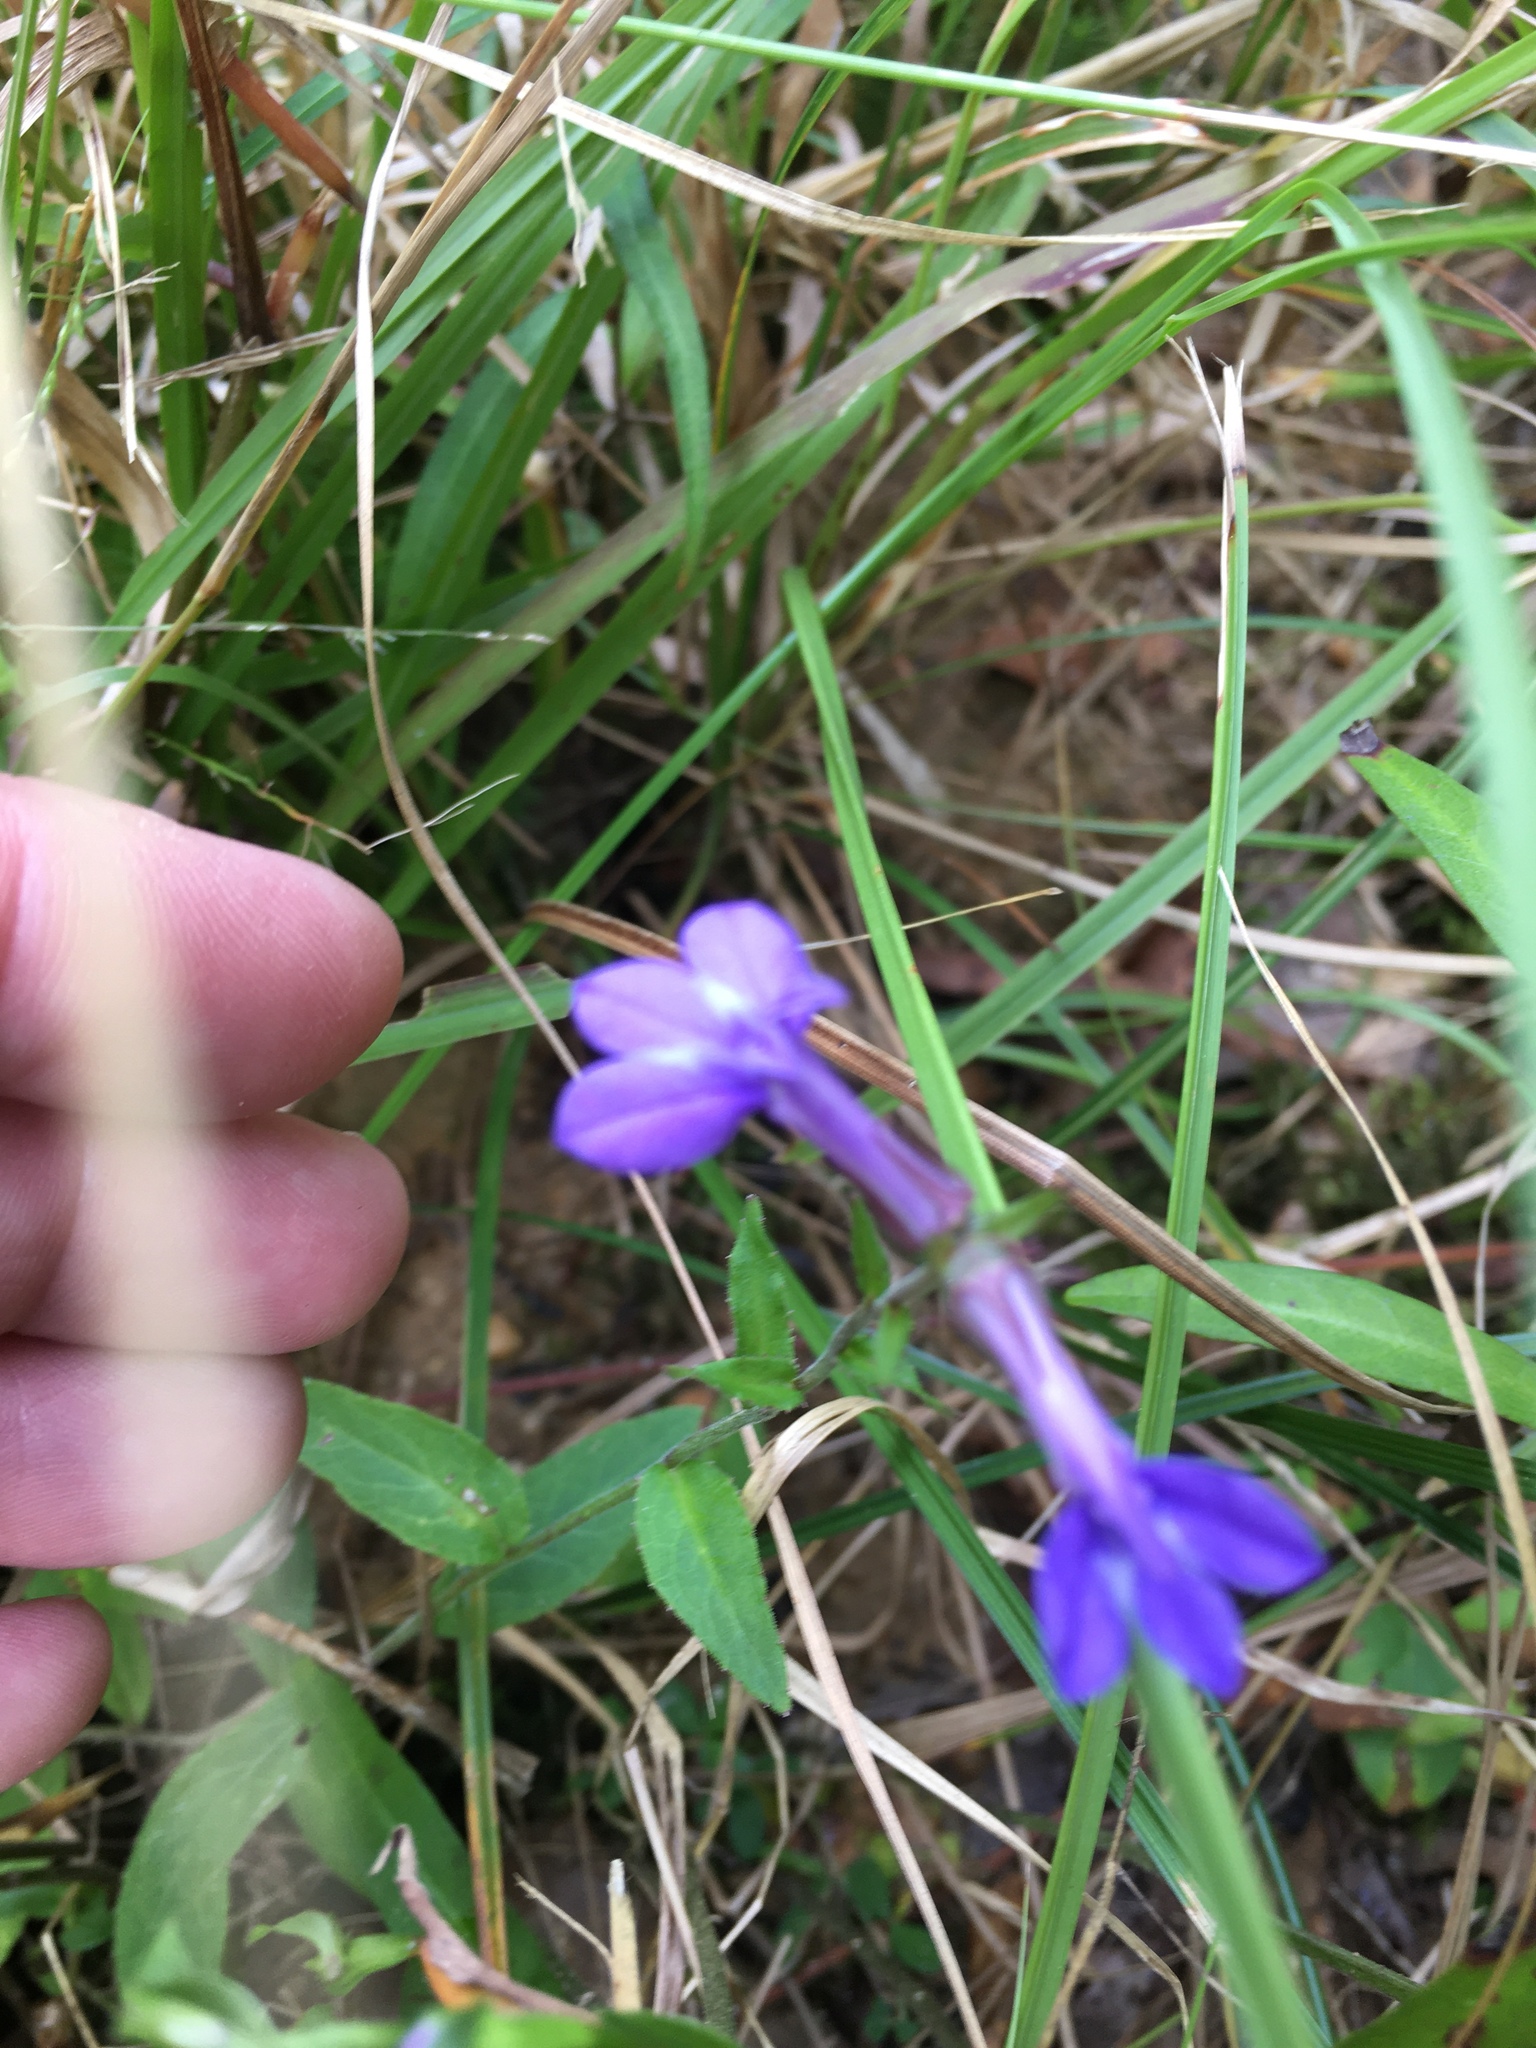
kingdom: Plantae
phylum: Tracheophyta
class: Magnoliopsida
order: Asterales
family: Campanulaceae
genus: Lobelia
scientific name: Lobelia puberula
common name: Purple dewdrop
